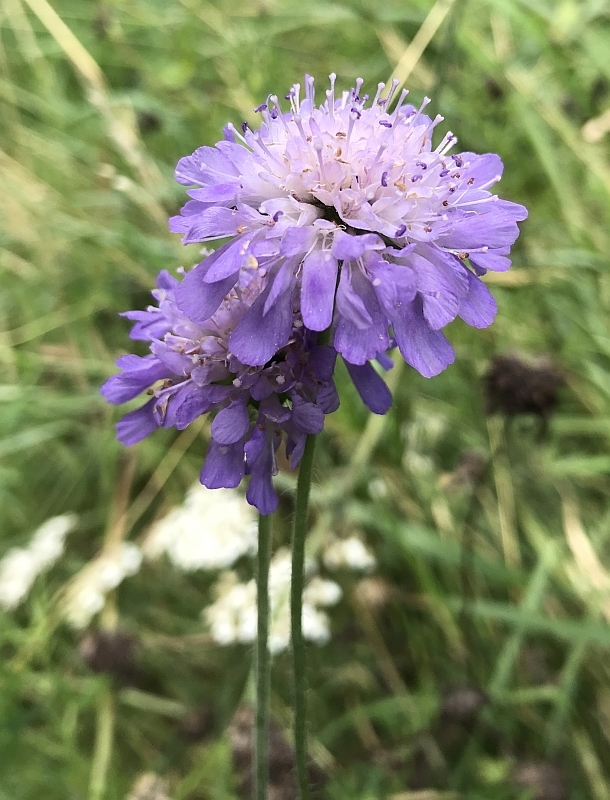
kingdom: Plantae
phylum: Tracheophyta
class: Magnoliopsida
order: Dipsacales
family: Caprifoliaceae
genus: Knautia
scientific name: Knautia arvensis
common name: Field scabiosa
